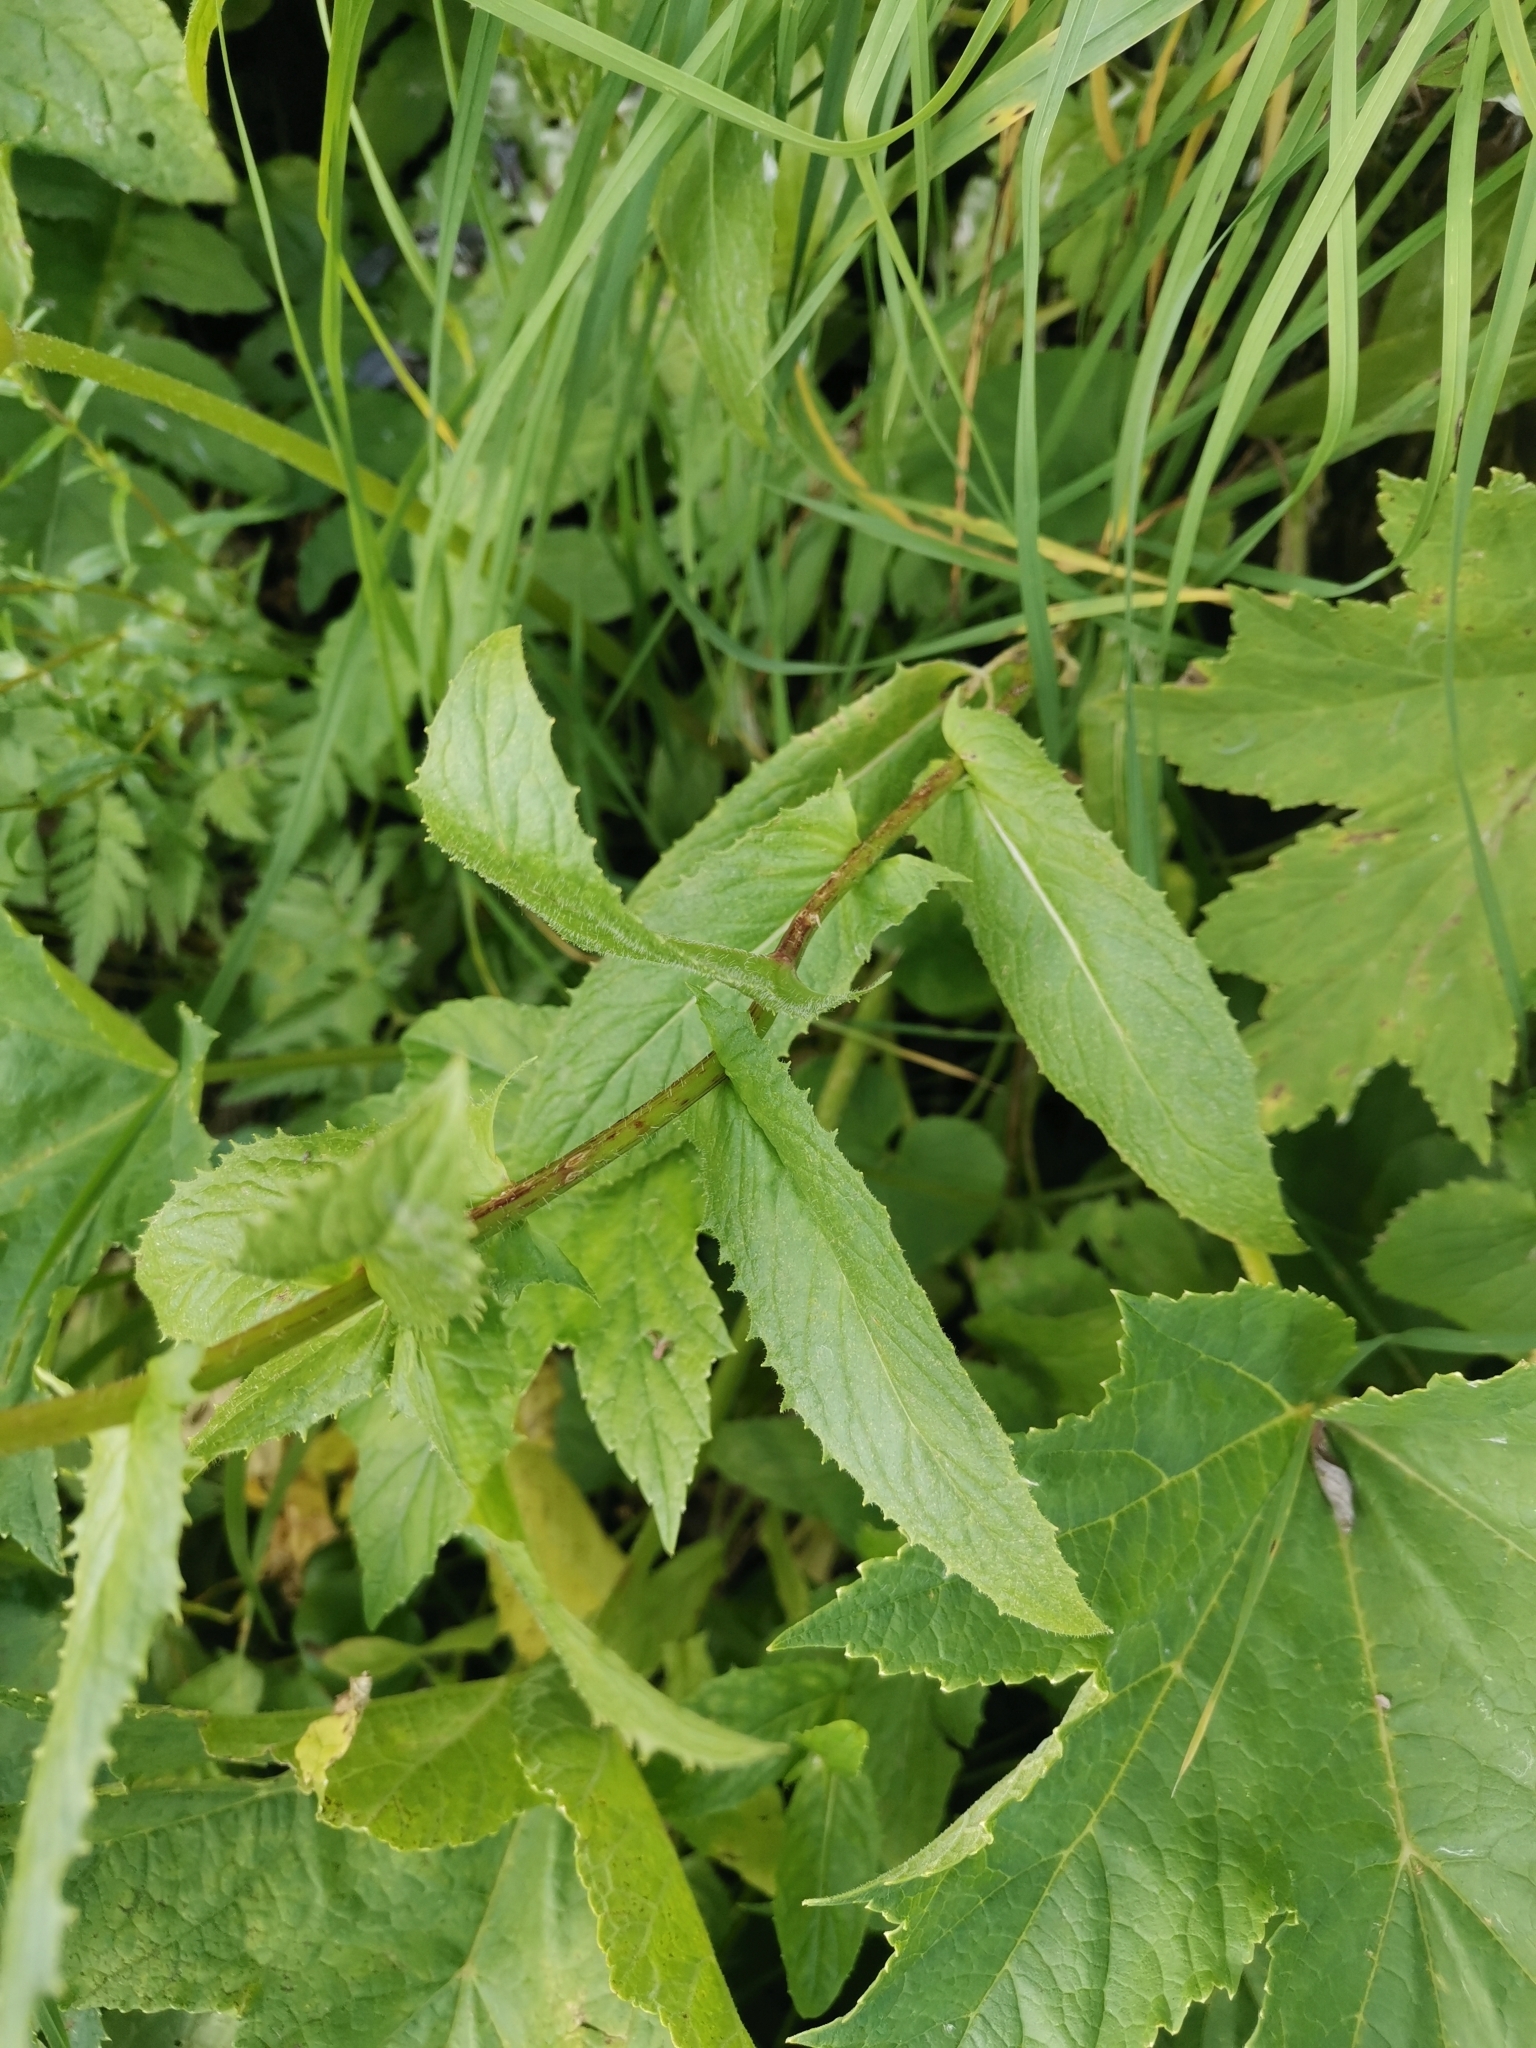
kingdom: Plantae
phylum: Tracheophyta
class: Magnoliopsida
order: Asterales
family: Asteraceae
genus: Crepis
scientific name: Crepis pyrenaica
